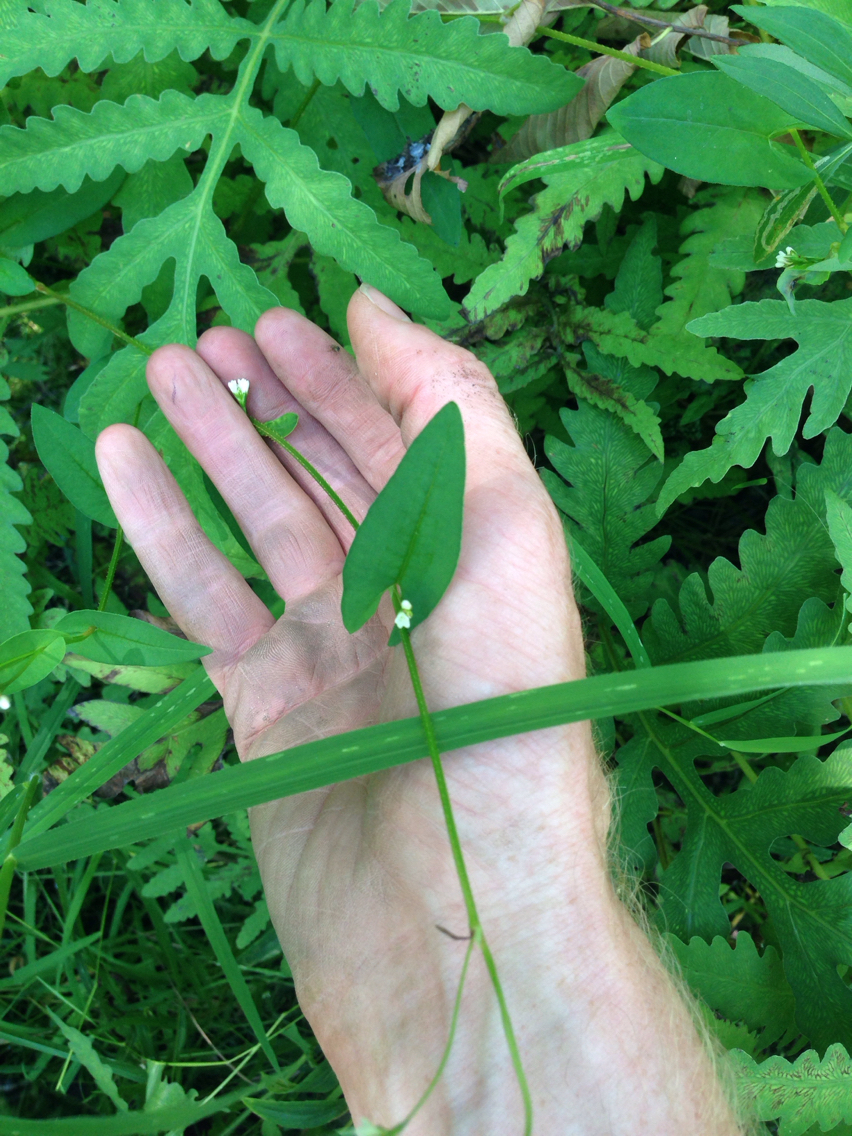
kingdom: Plantae
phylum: Tracheophyta
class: Magnoliopsida
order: Caryophyllales
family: Polygonaceae
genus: Persicaria
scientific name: Persicaria sagittata
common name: American tearthumb
